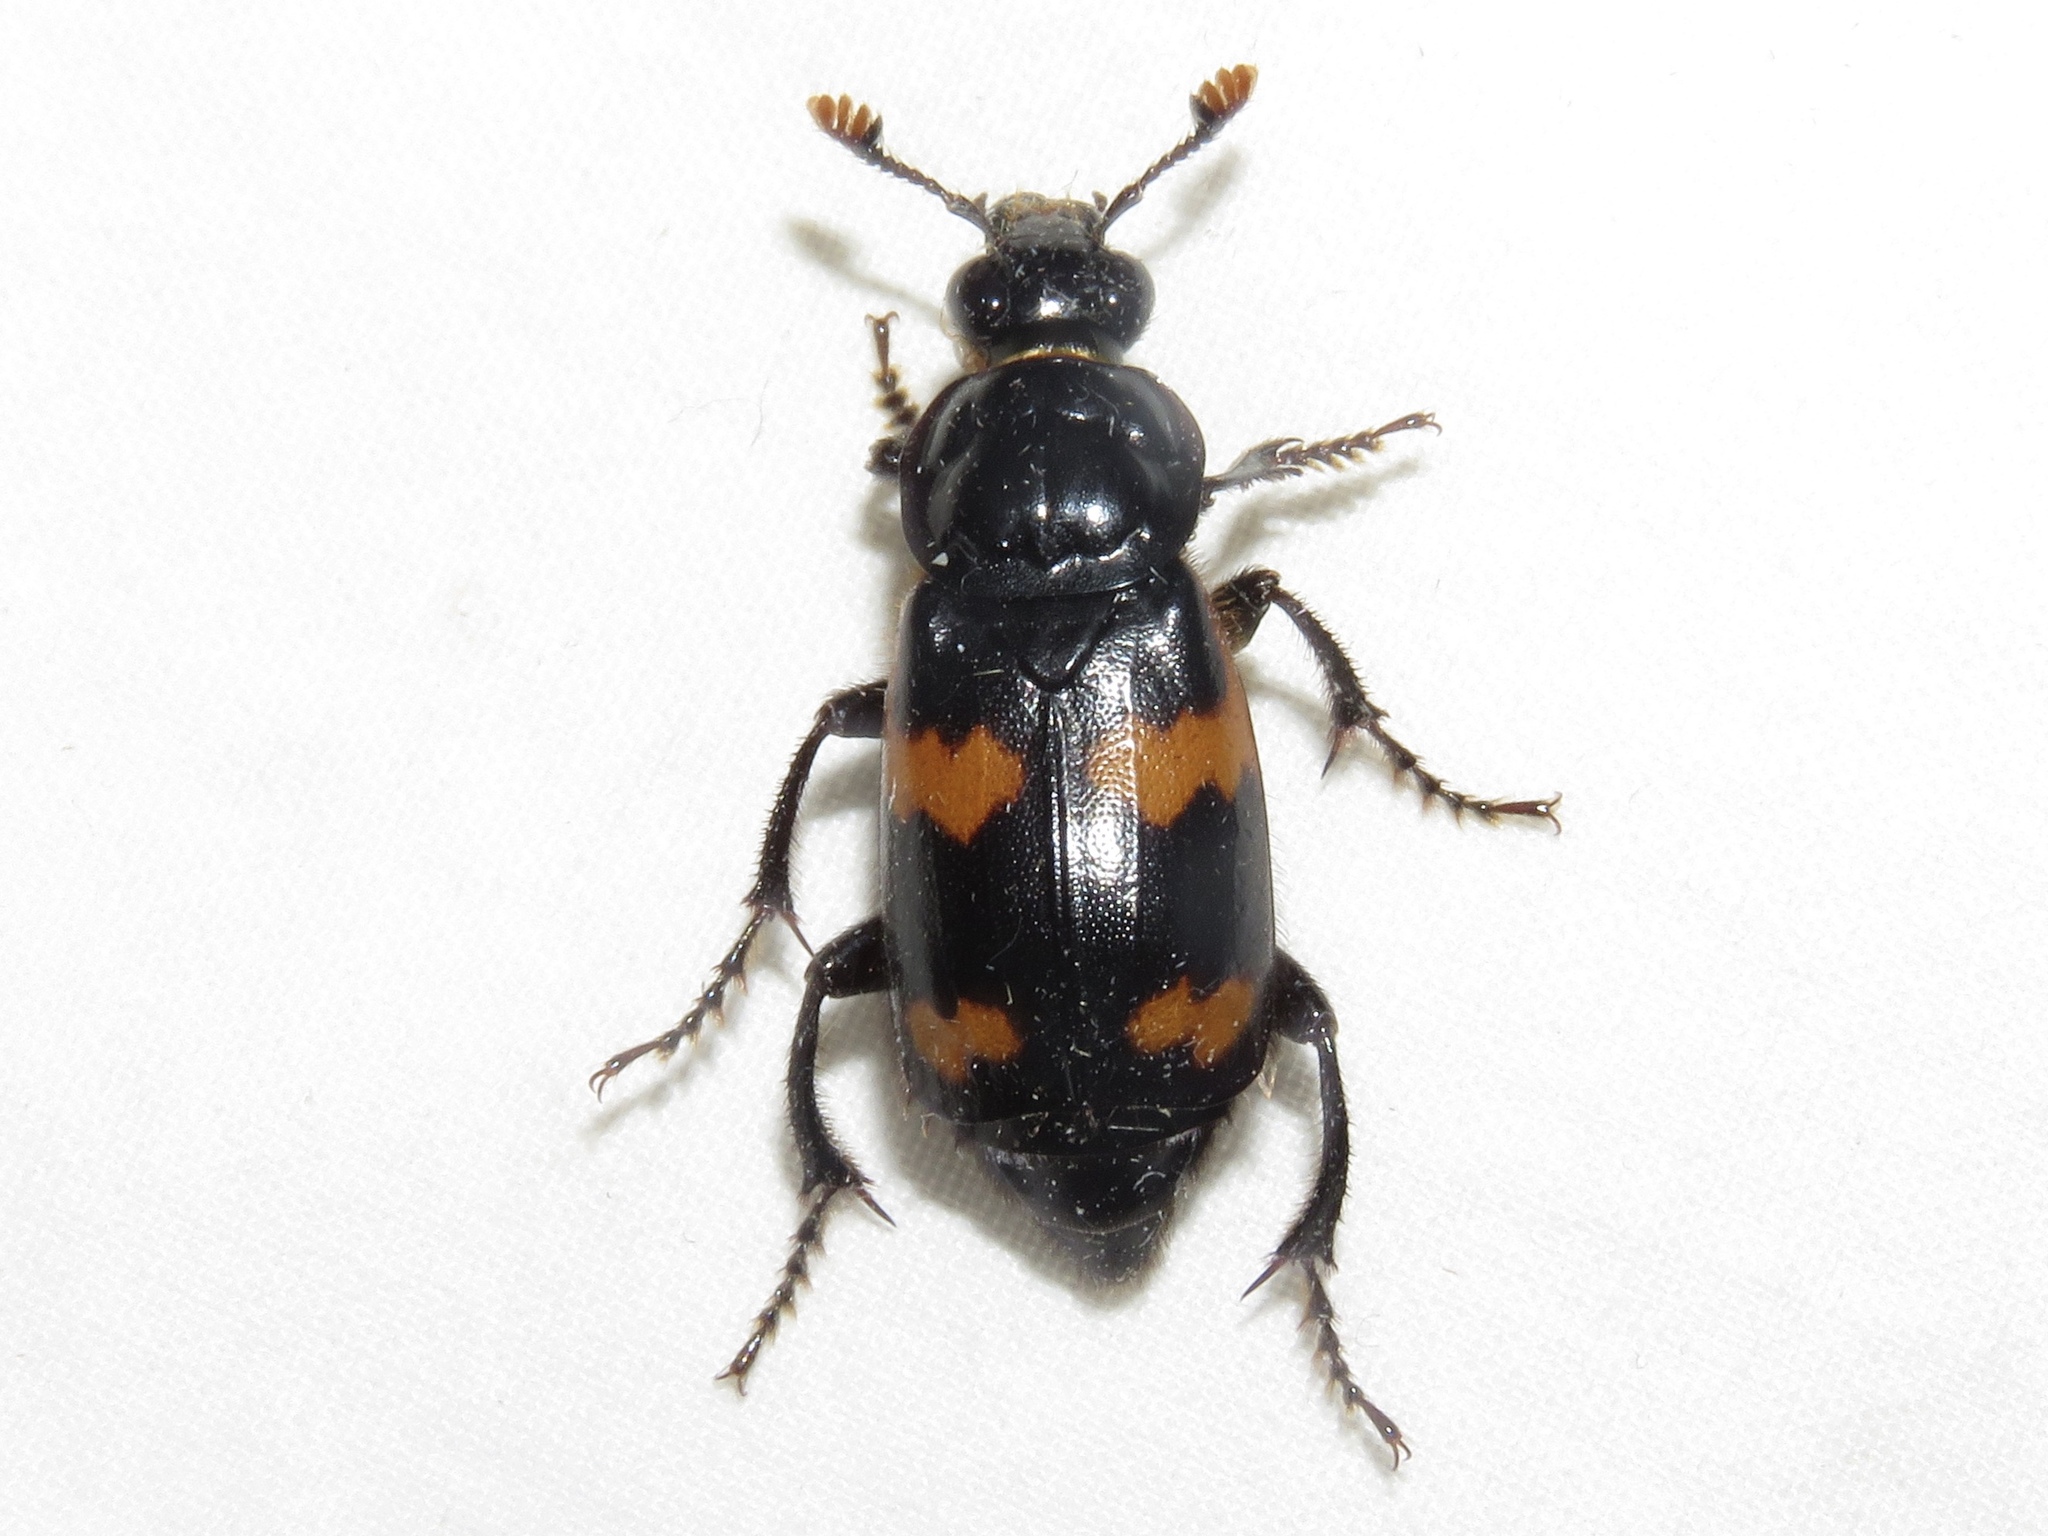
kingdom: Animalia
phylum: Arthropoda
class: Insecta
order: Coleoptera
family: Staphylinidae
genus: Nicrophorus
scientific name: Nicrophorus sayi
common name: Say's burying beetle
